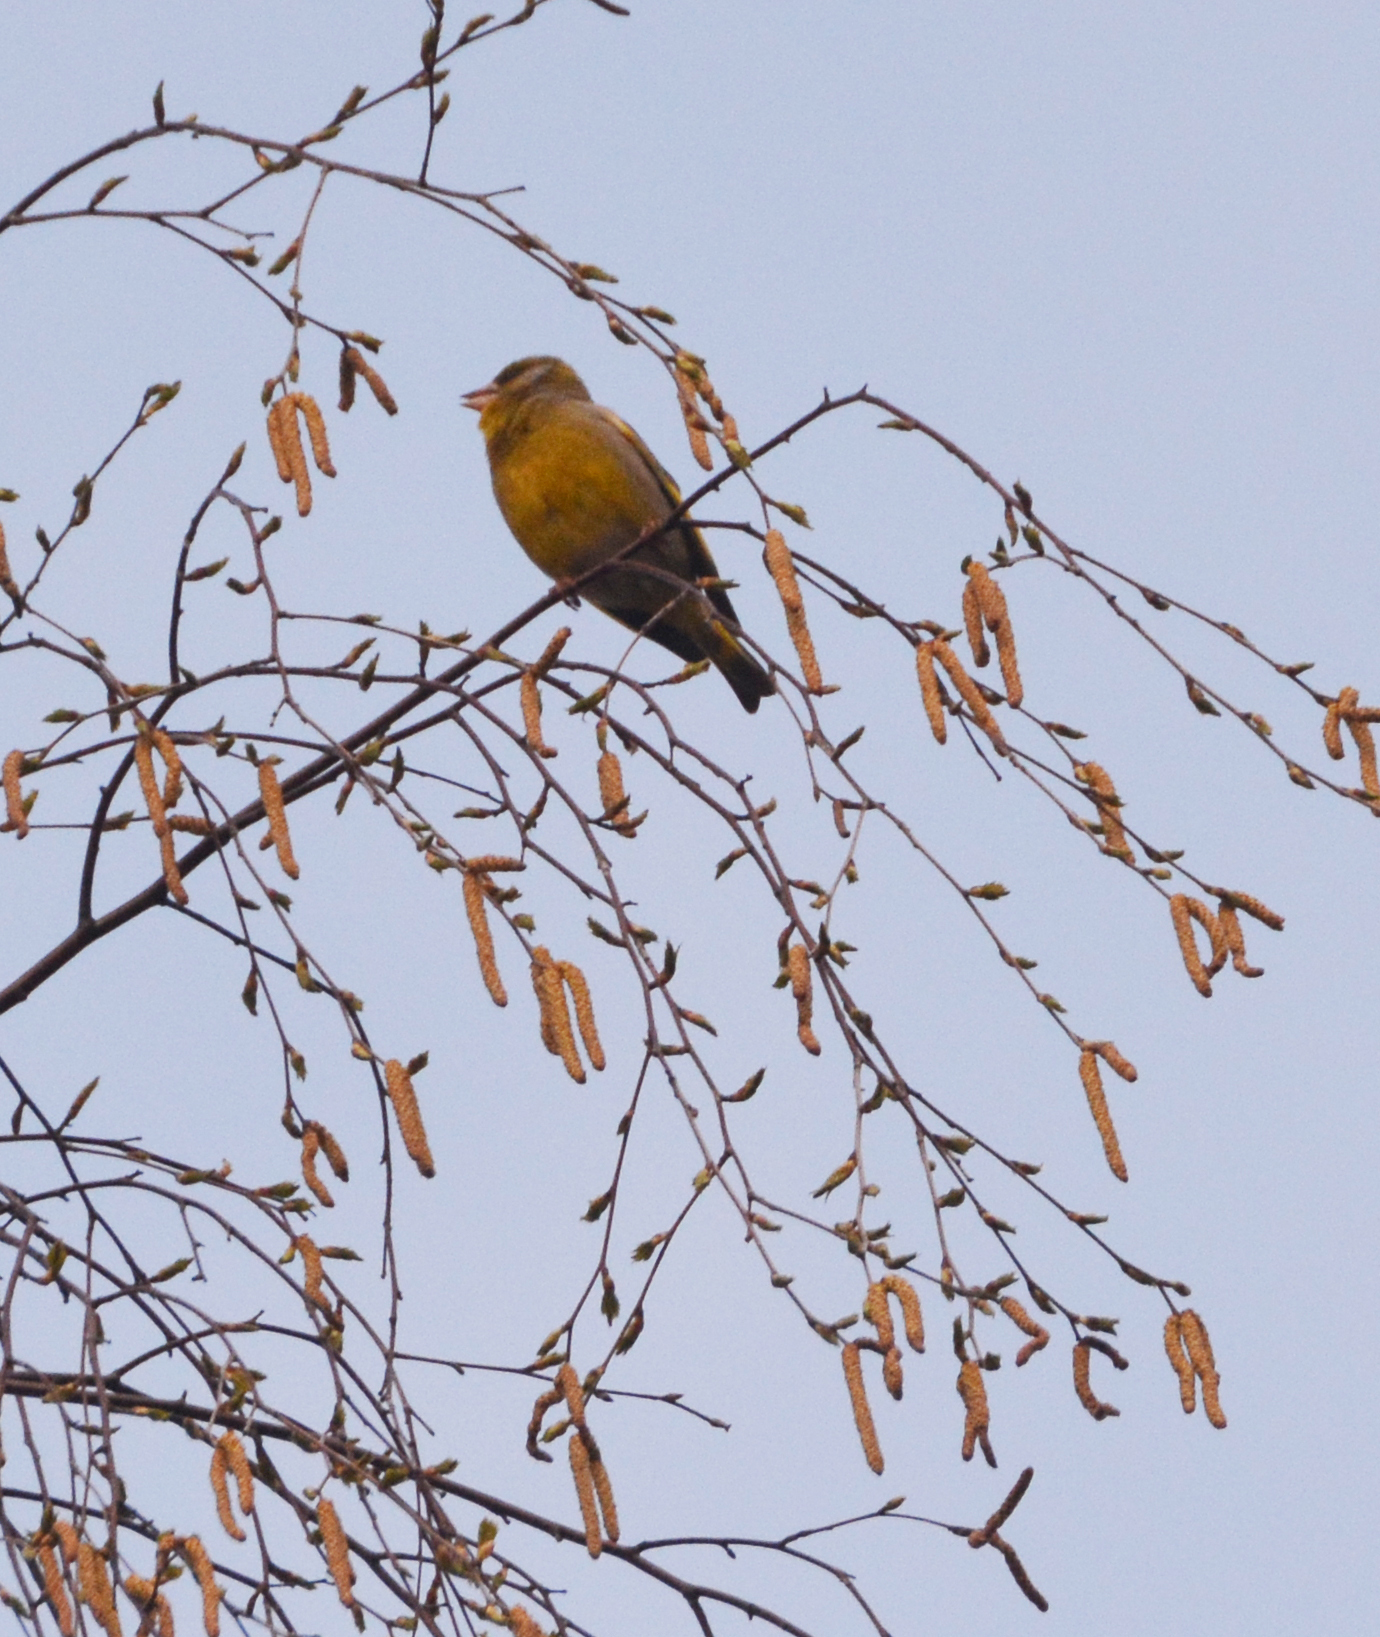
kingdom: Plantae
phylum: Tracheophyta
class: Liliopsida
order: Poales
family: Poaceae
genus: Chloris
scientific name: Chloris chloris
